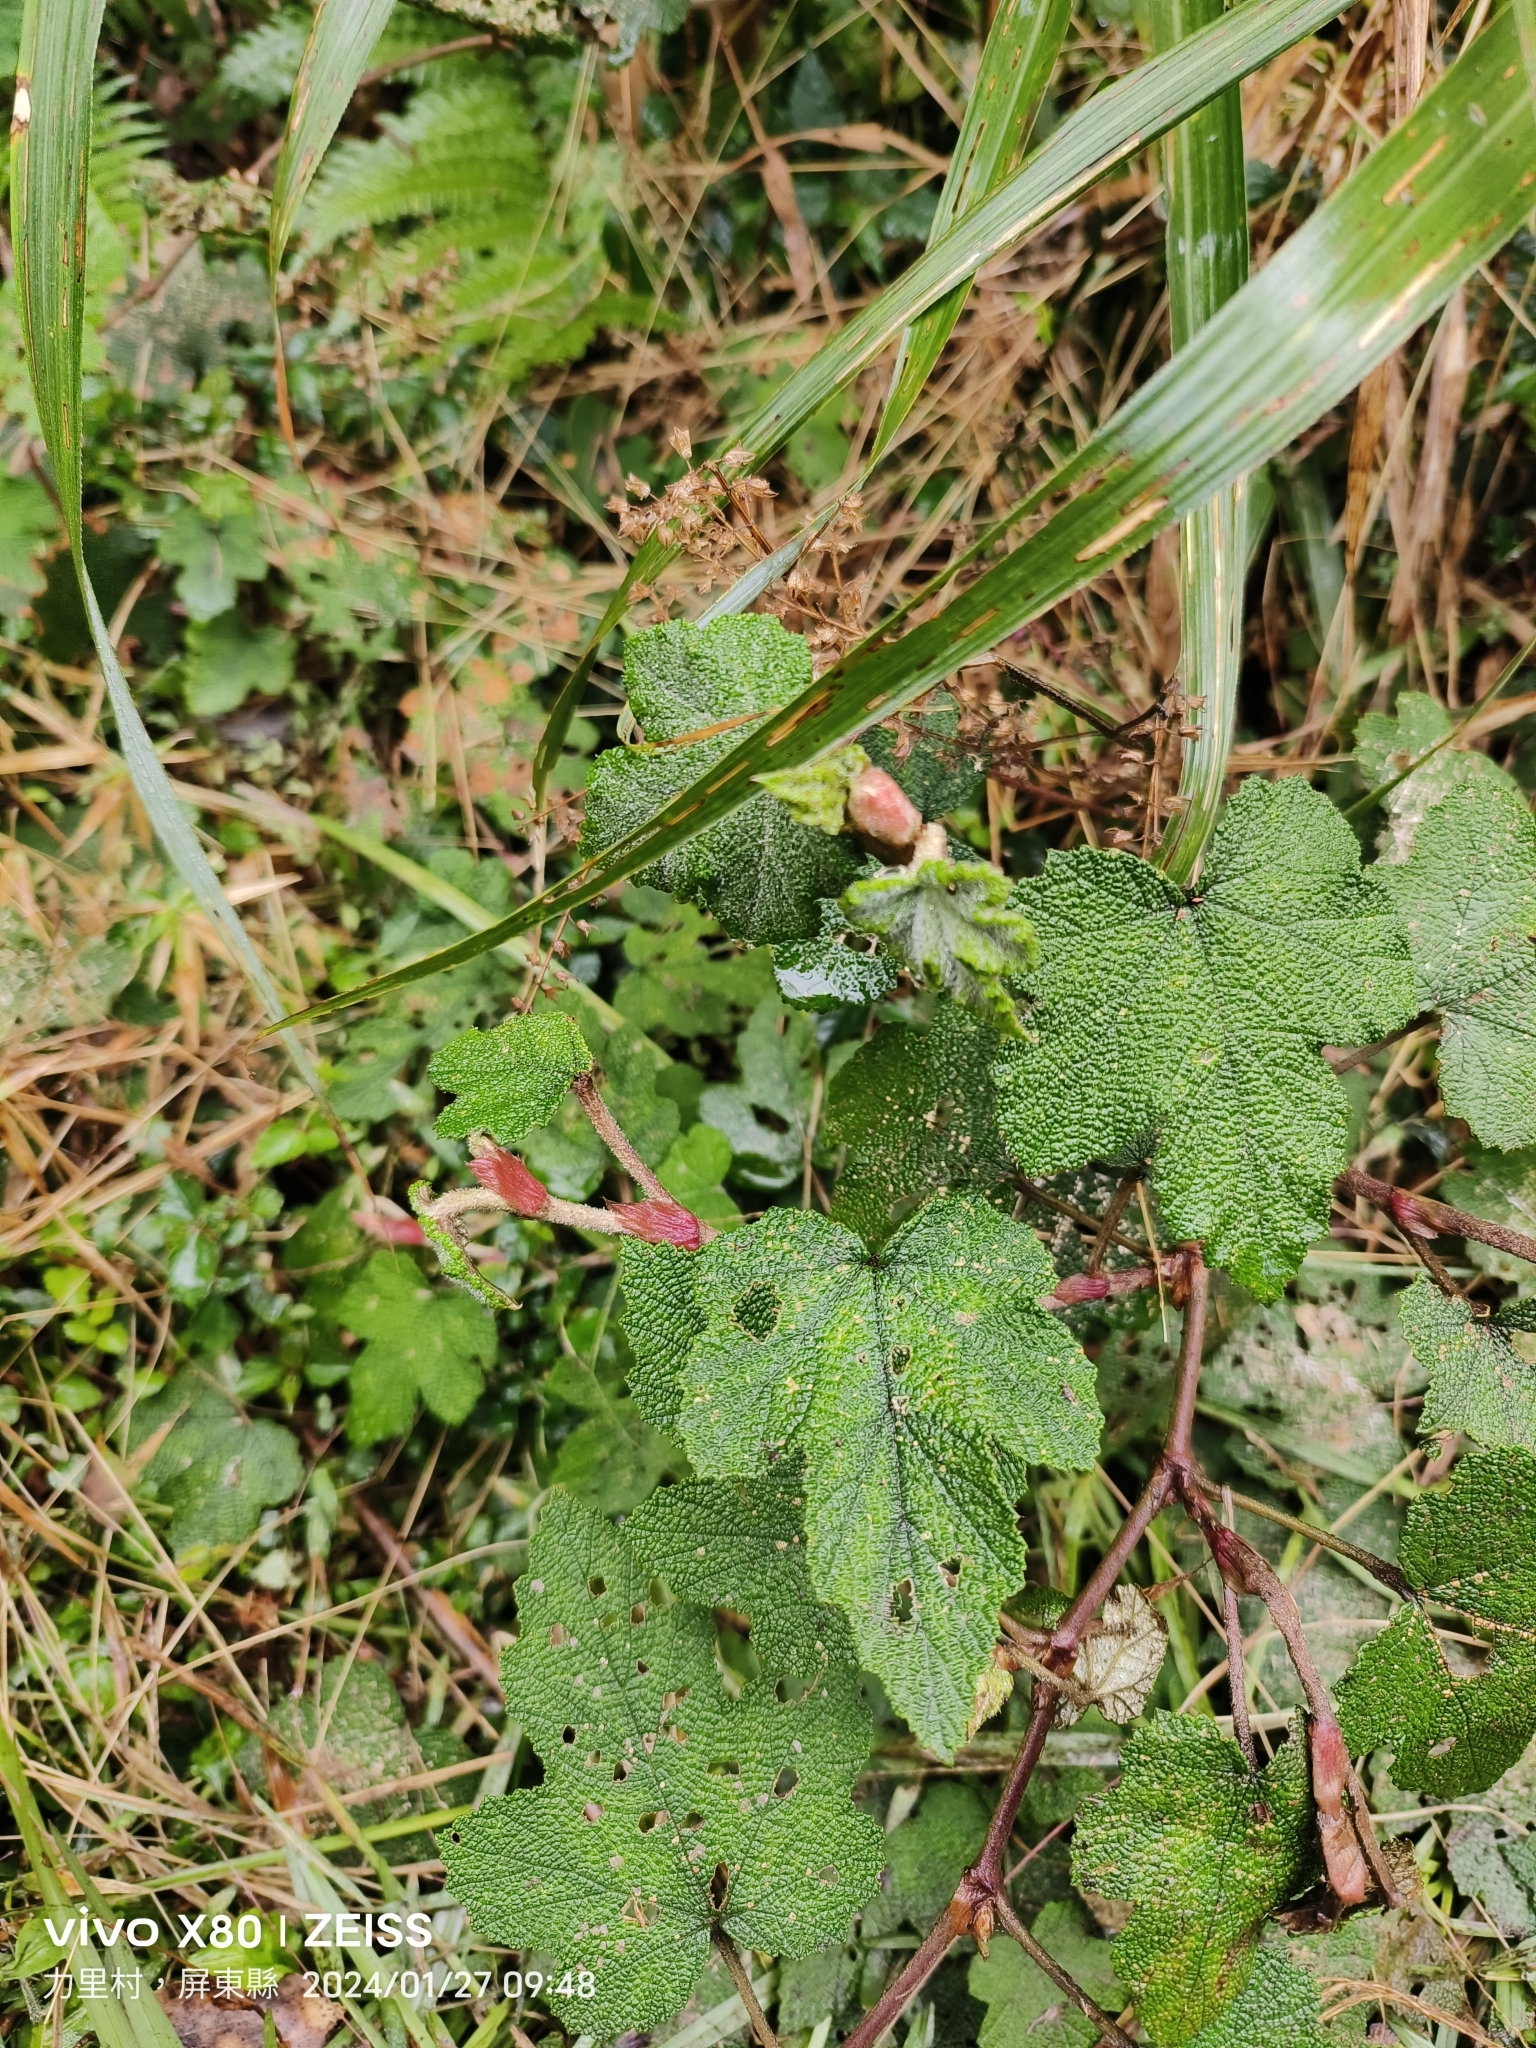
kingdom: Plantae
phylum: Tracheophyta
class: Magnoliopsida
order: Rosales
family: Rosaceae
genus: Rubus
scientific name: Rubus formosensis
